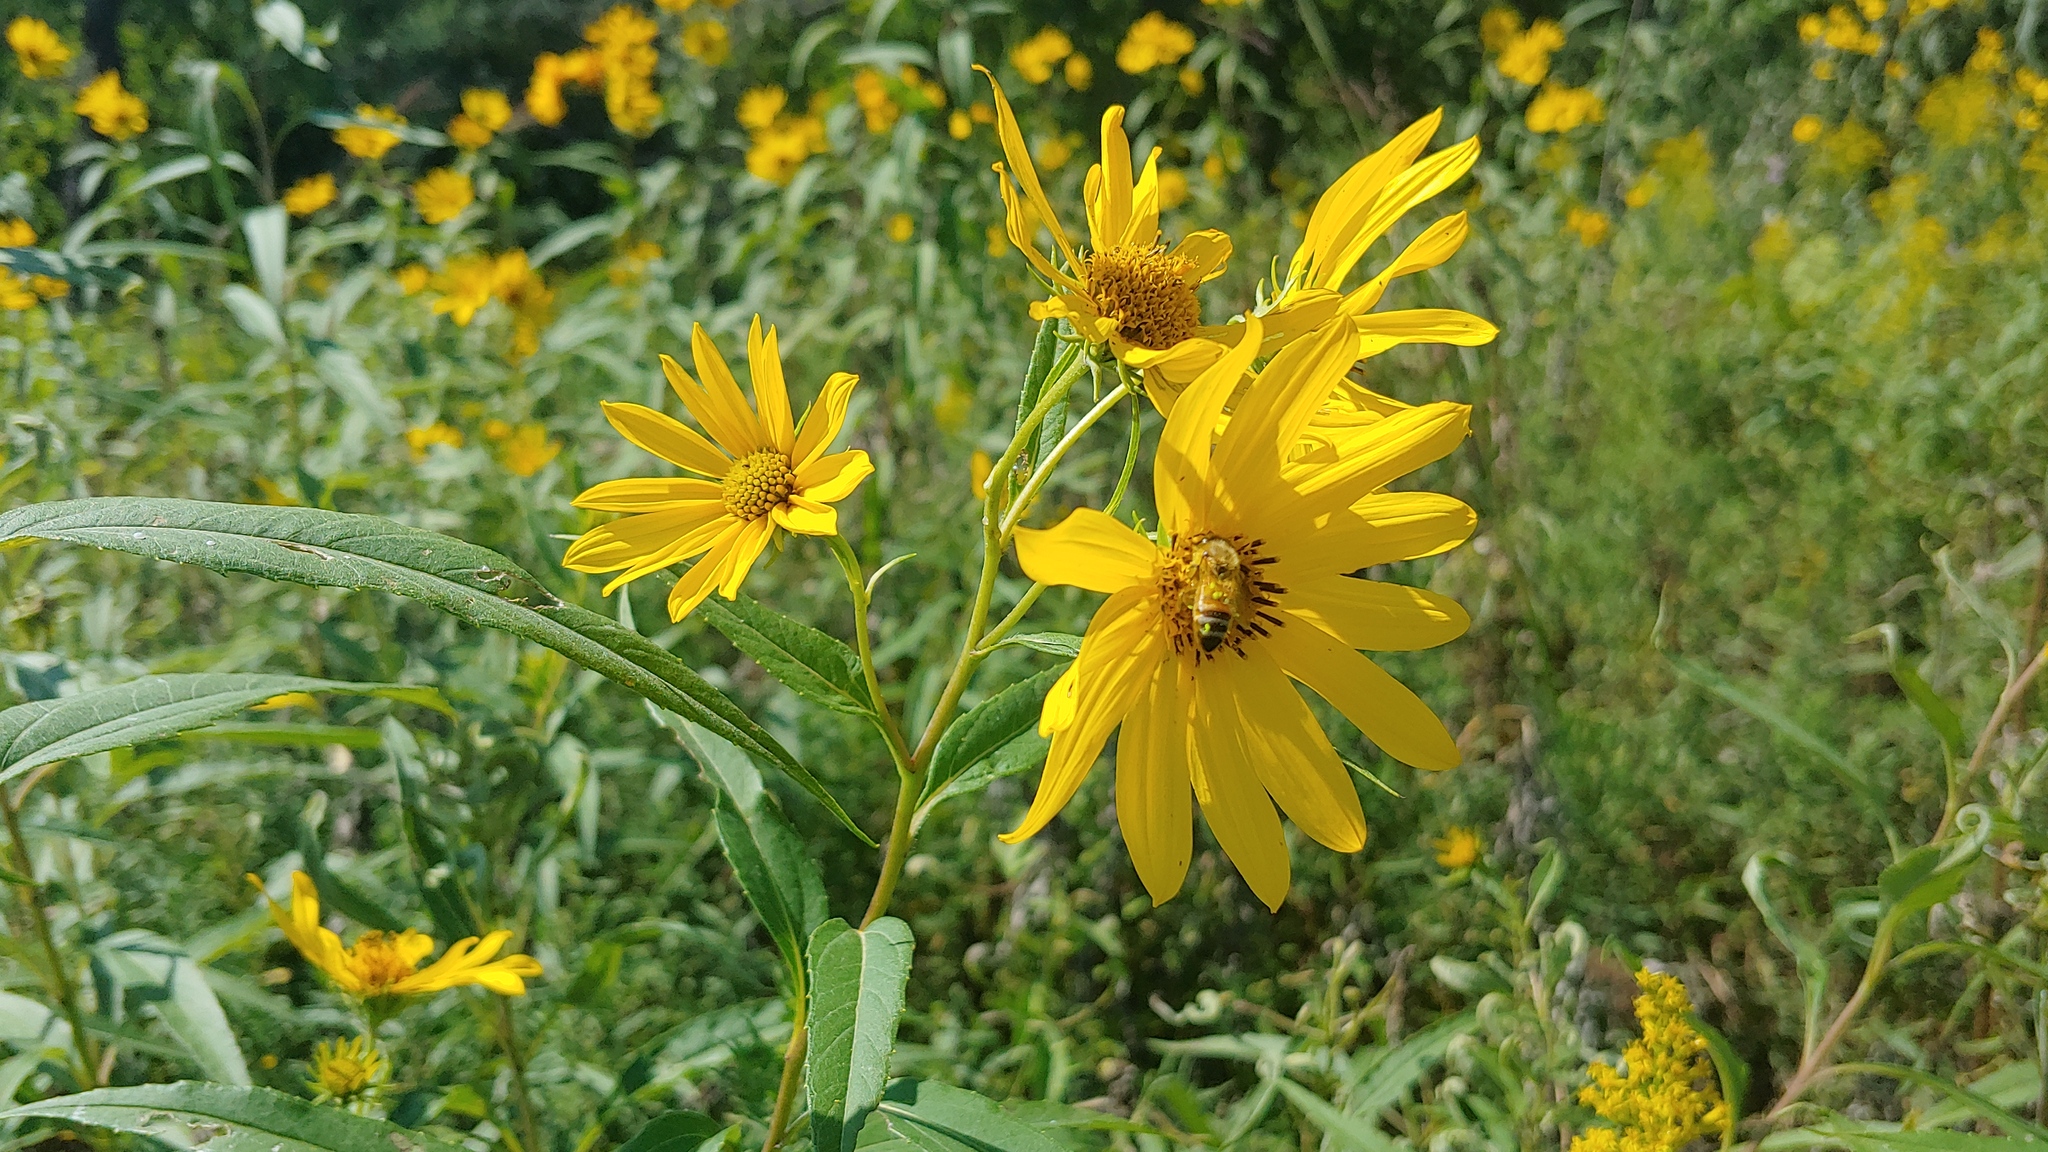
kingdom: Animalia
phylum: Arthropoda
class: Insecta
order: Hymenoptera
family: Apidae
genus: Apis
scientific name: Apis mellifera
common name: Honey bee
